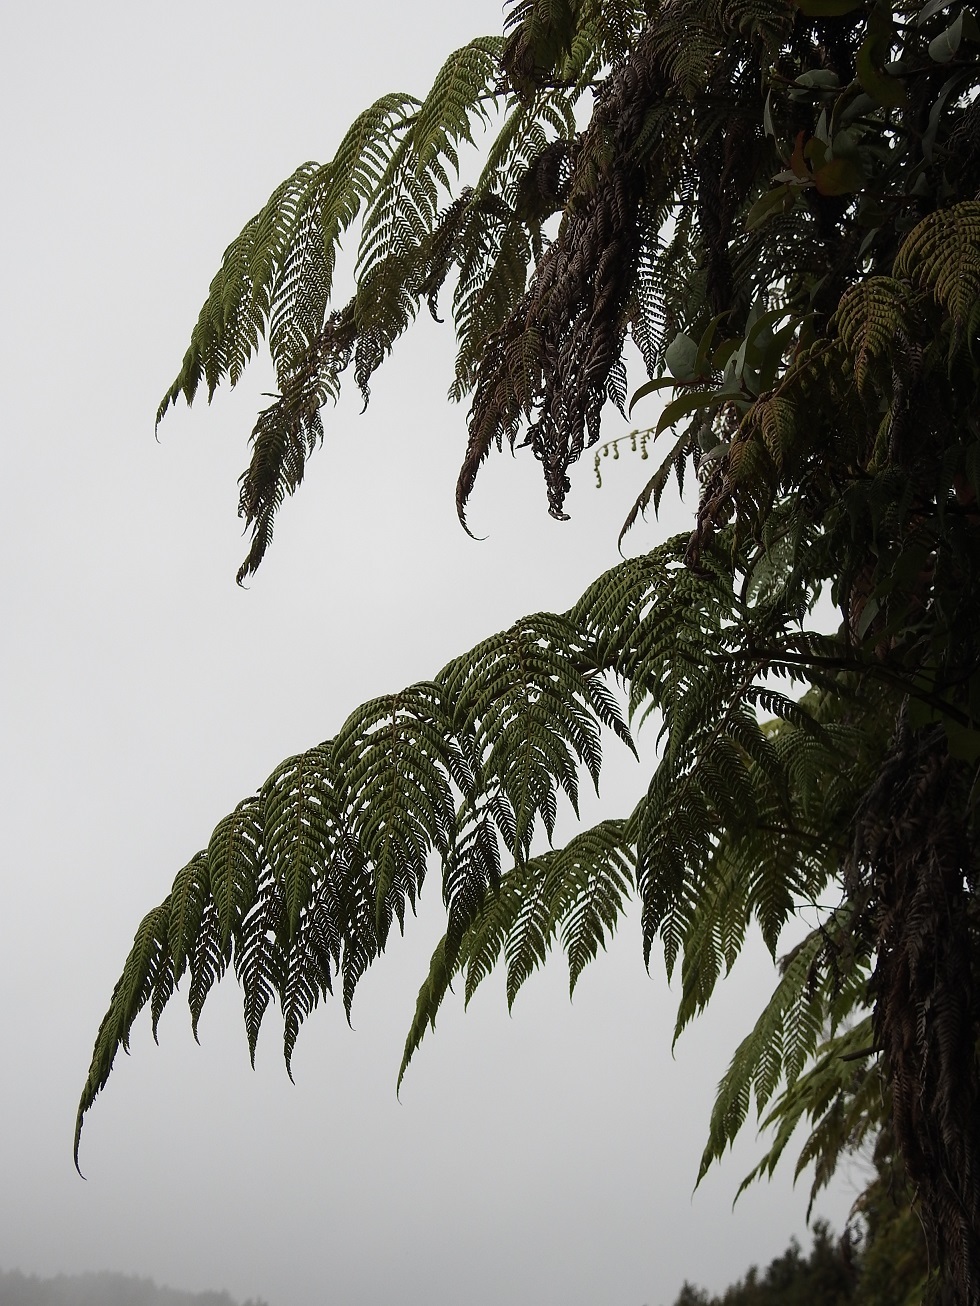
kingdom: Plantae
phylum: Tracheophyta
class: Polypodiopsida
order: Cyatheales
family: Dicksoniaceae
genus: Lophosoria
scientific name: Lophosoria quadripinnata
